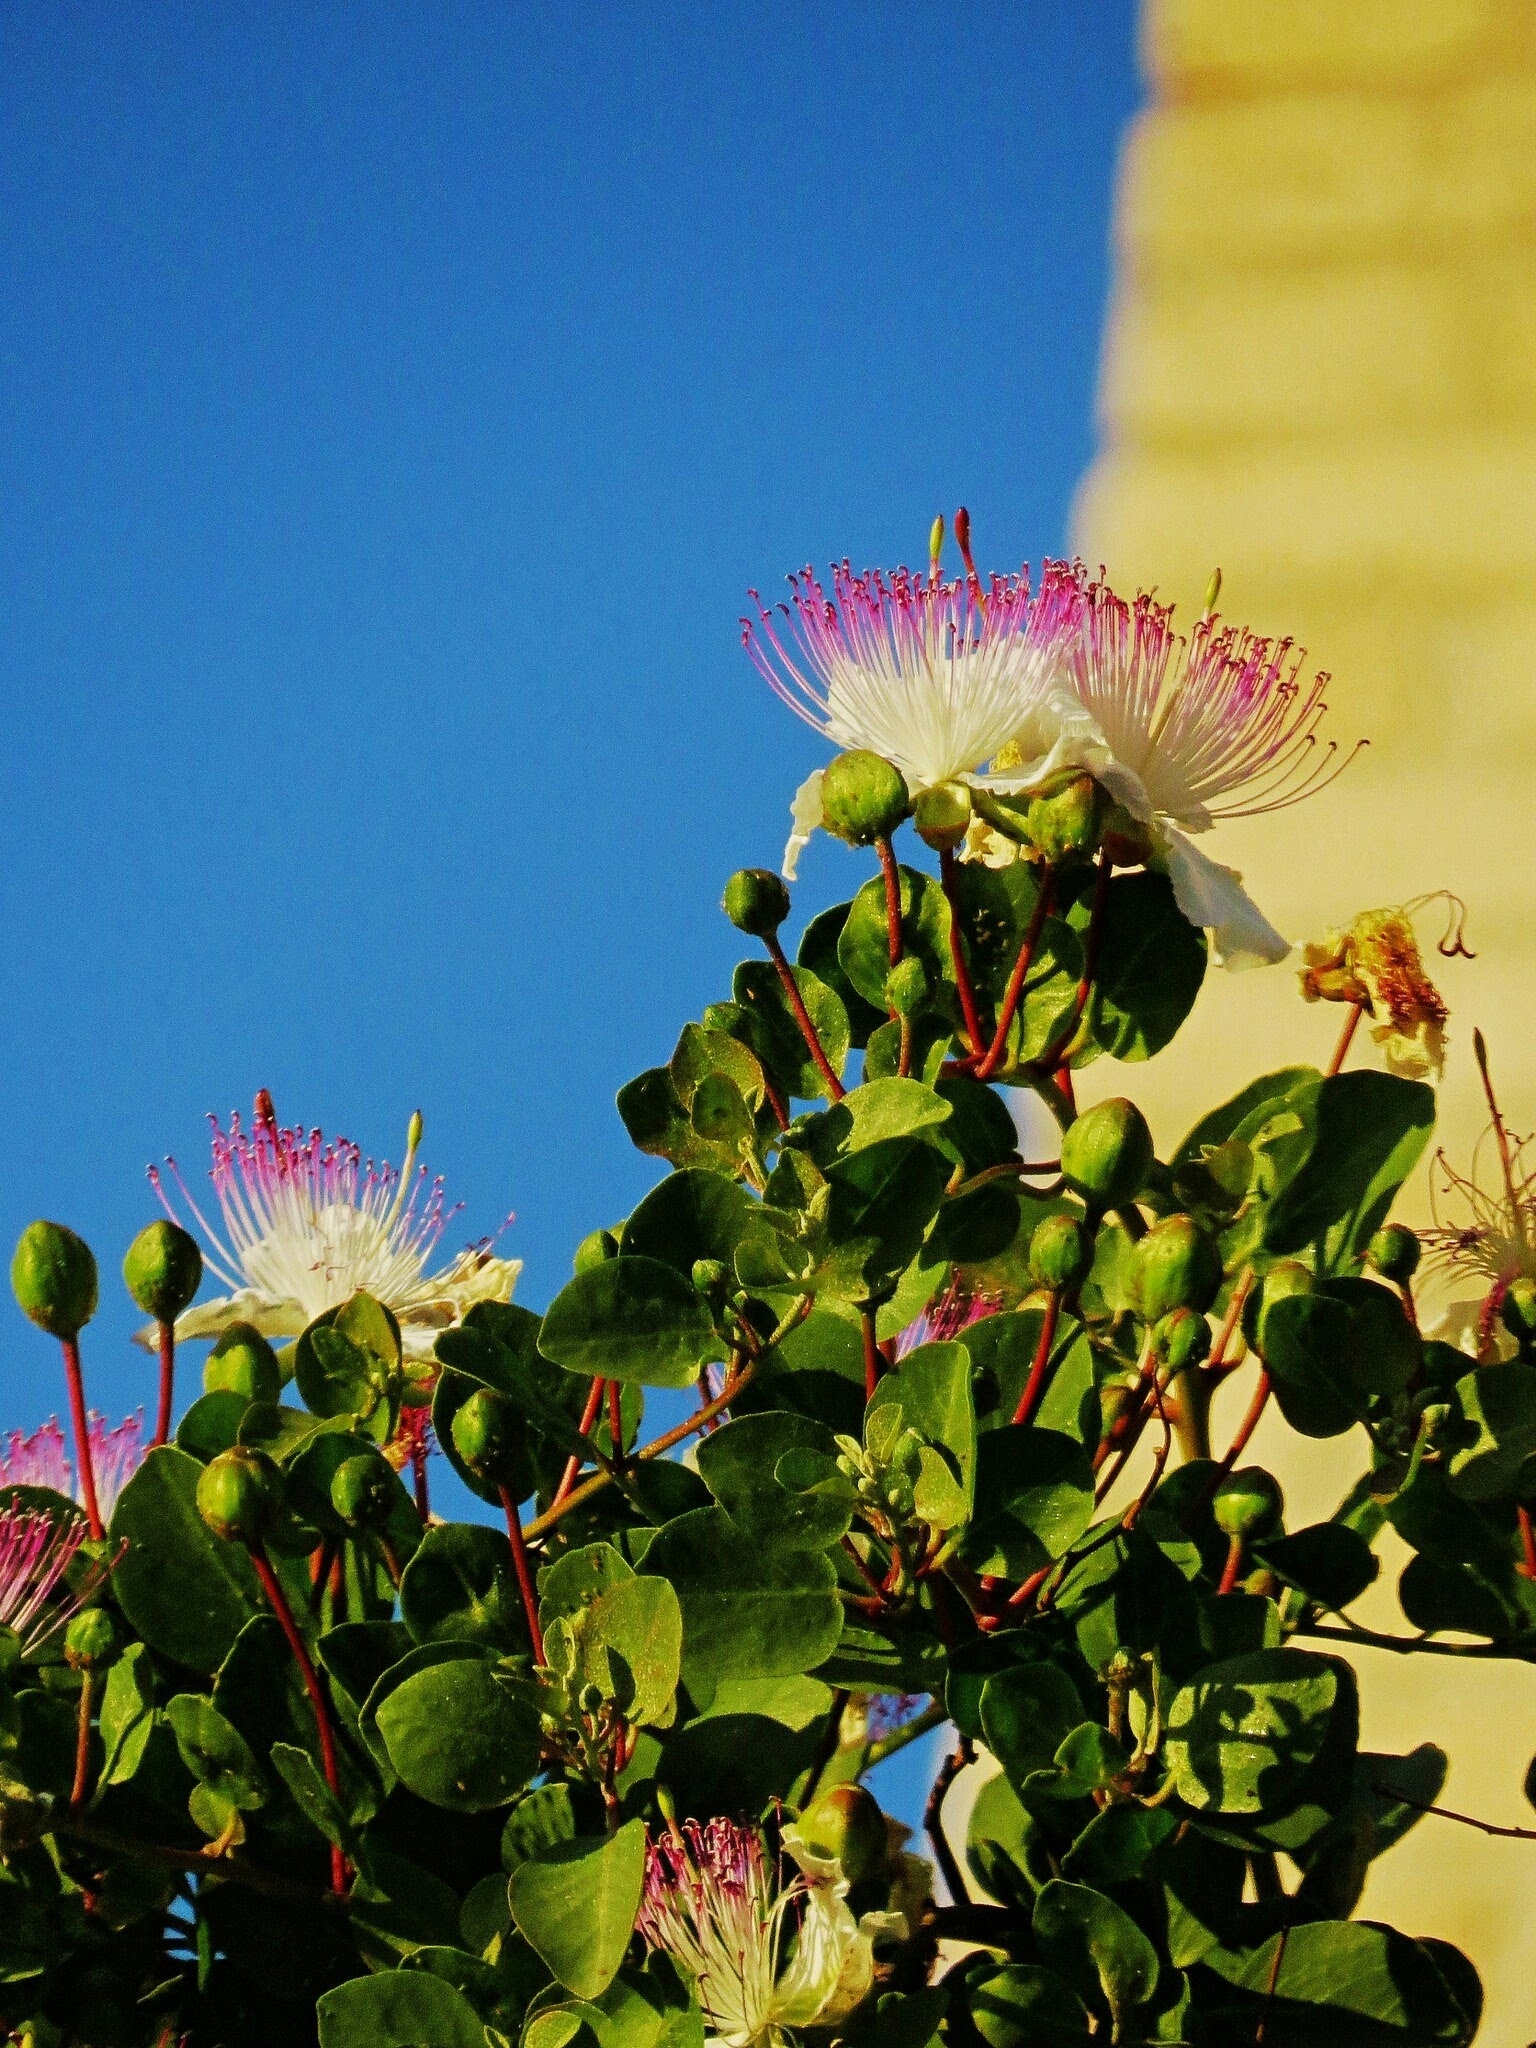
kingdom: Plantae
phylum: Tracheophyta
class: Magnoliopsida
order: Brassicales
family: Capparaceae
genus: Capparis
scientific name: Capparis spinosa
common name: Caper
